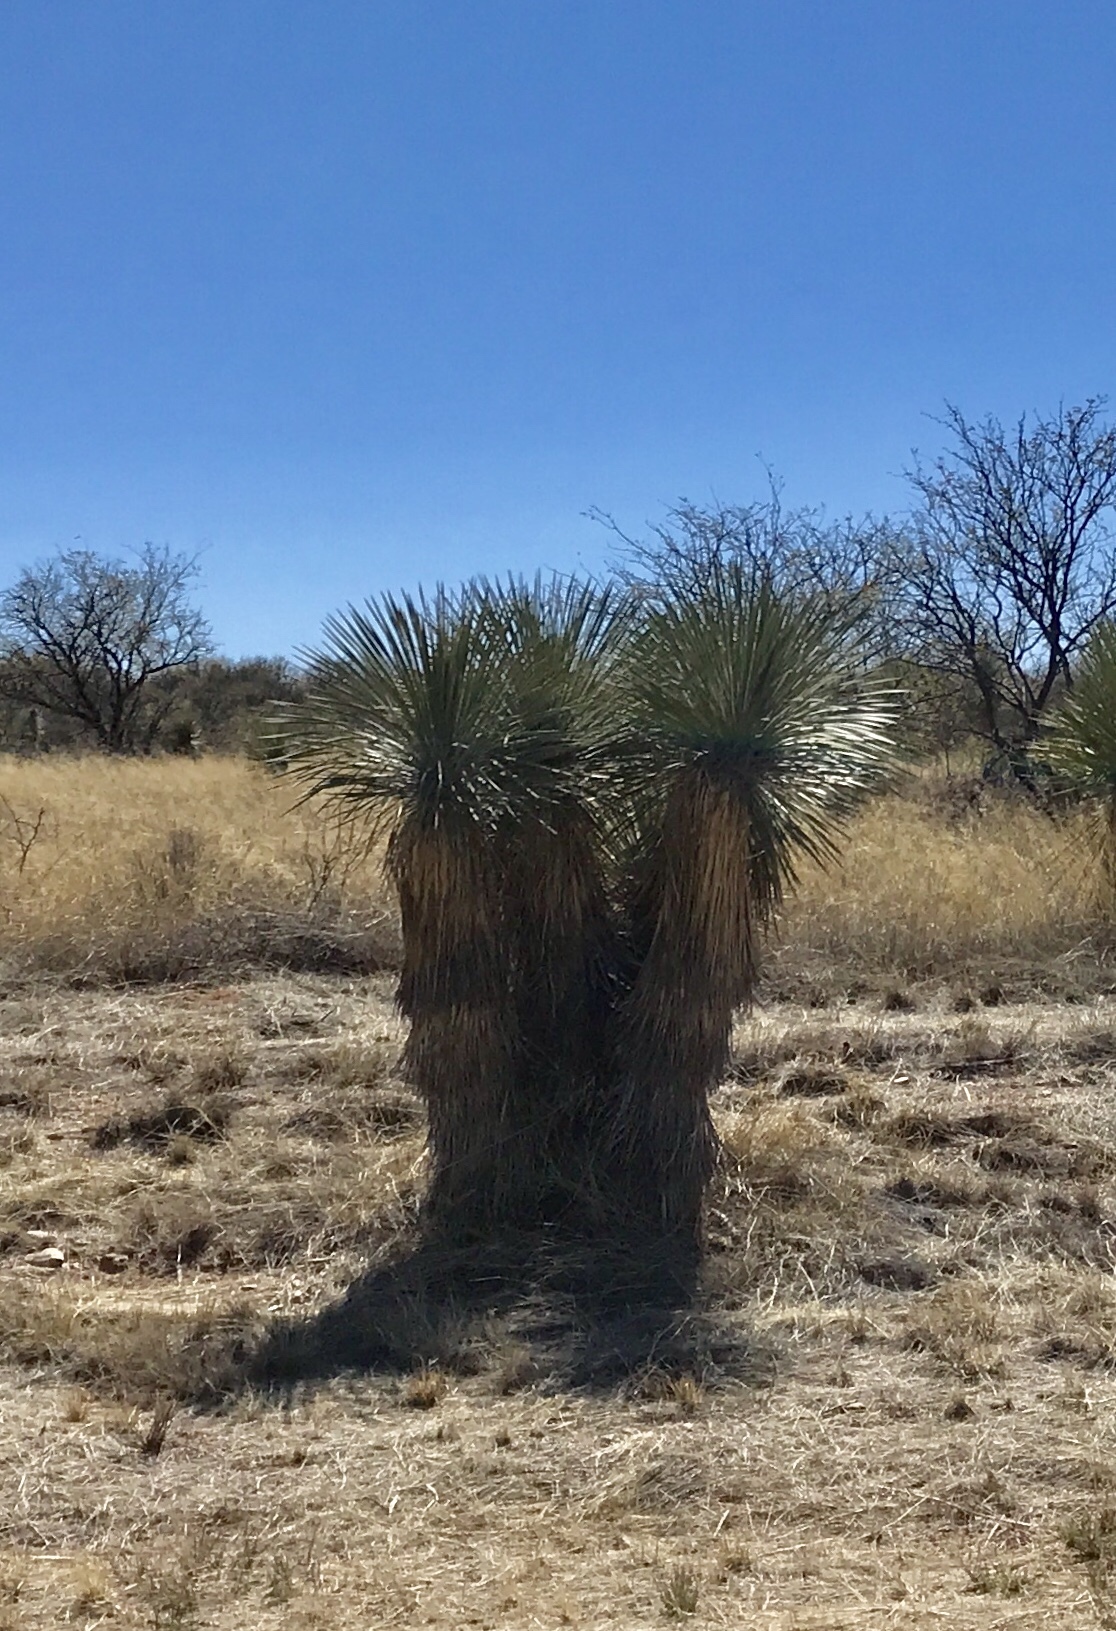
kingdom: Plantae
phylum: Tracheophyta
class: Liliopsida
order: Asparagales
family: Asparagaceae
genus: Yucca
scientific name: Yucca elata
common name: Palmella
